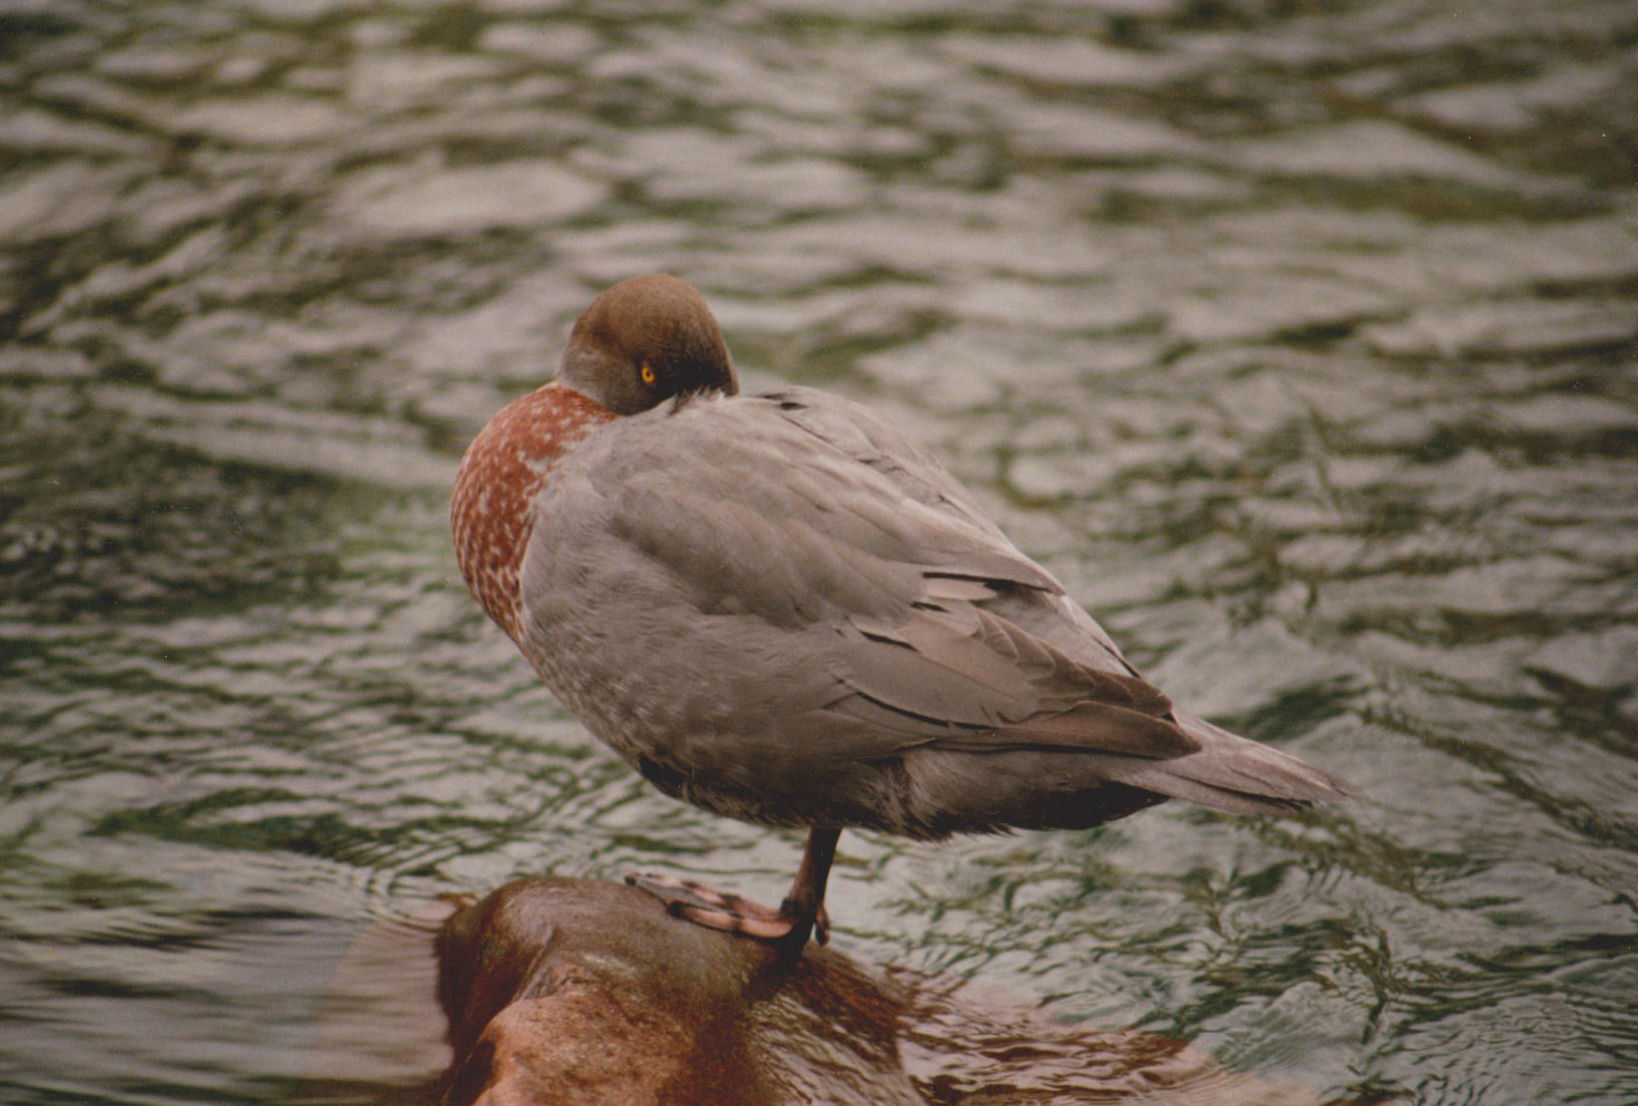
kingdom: Animalia
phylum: Chordata
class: Aves
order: Anseriformes
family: Anatidae
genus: Hymenolaimus
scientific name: Hymenolaimus malacorhynchos
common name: Blue duck
